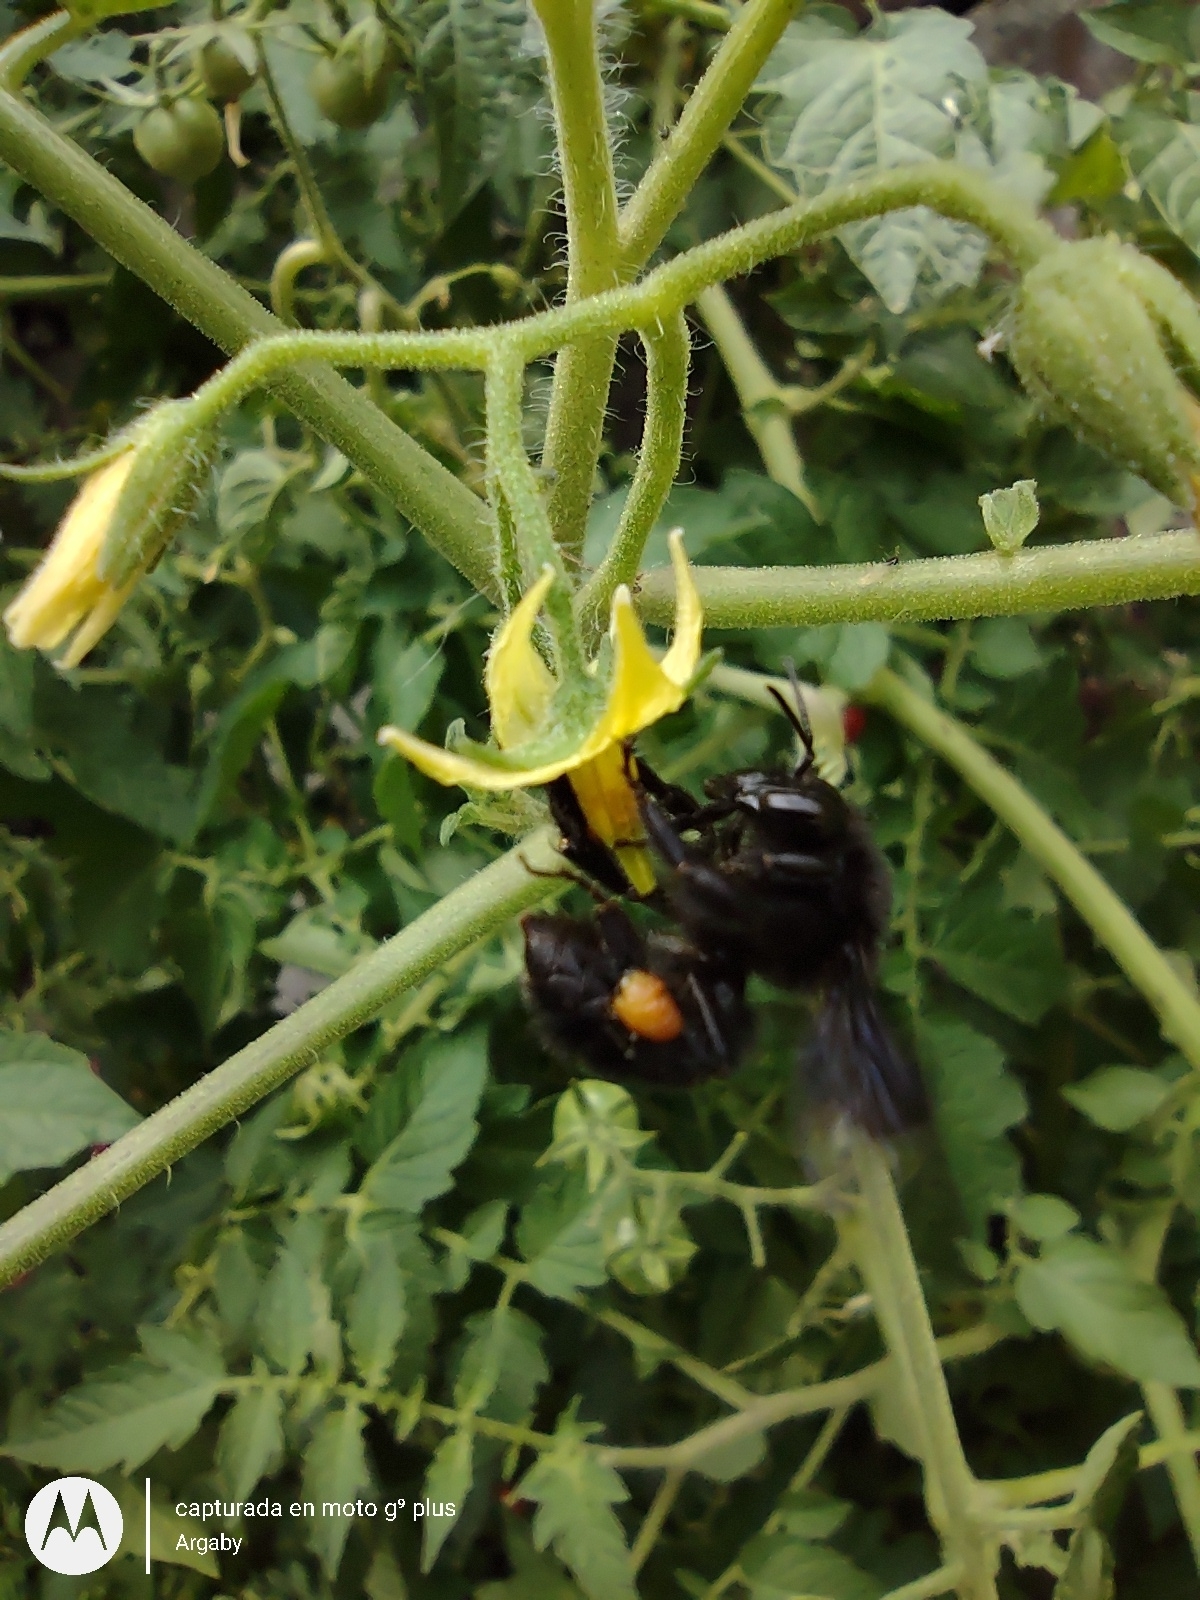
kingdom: Animalia
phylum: Arthropoda
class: Insecta
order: Hymenoptera
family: Apidae
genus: Bombus
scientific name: Bombus pauloensis
